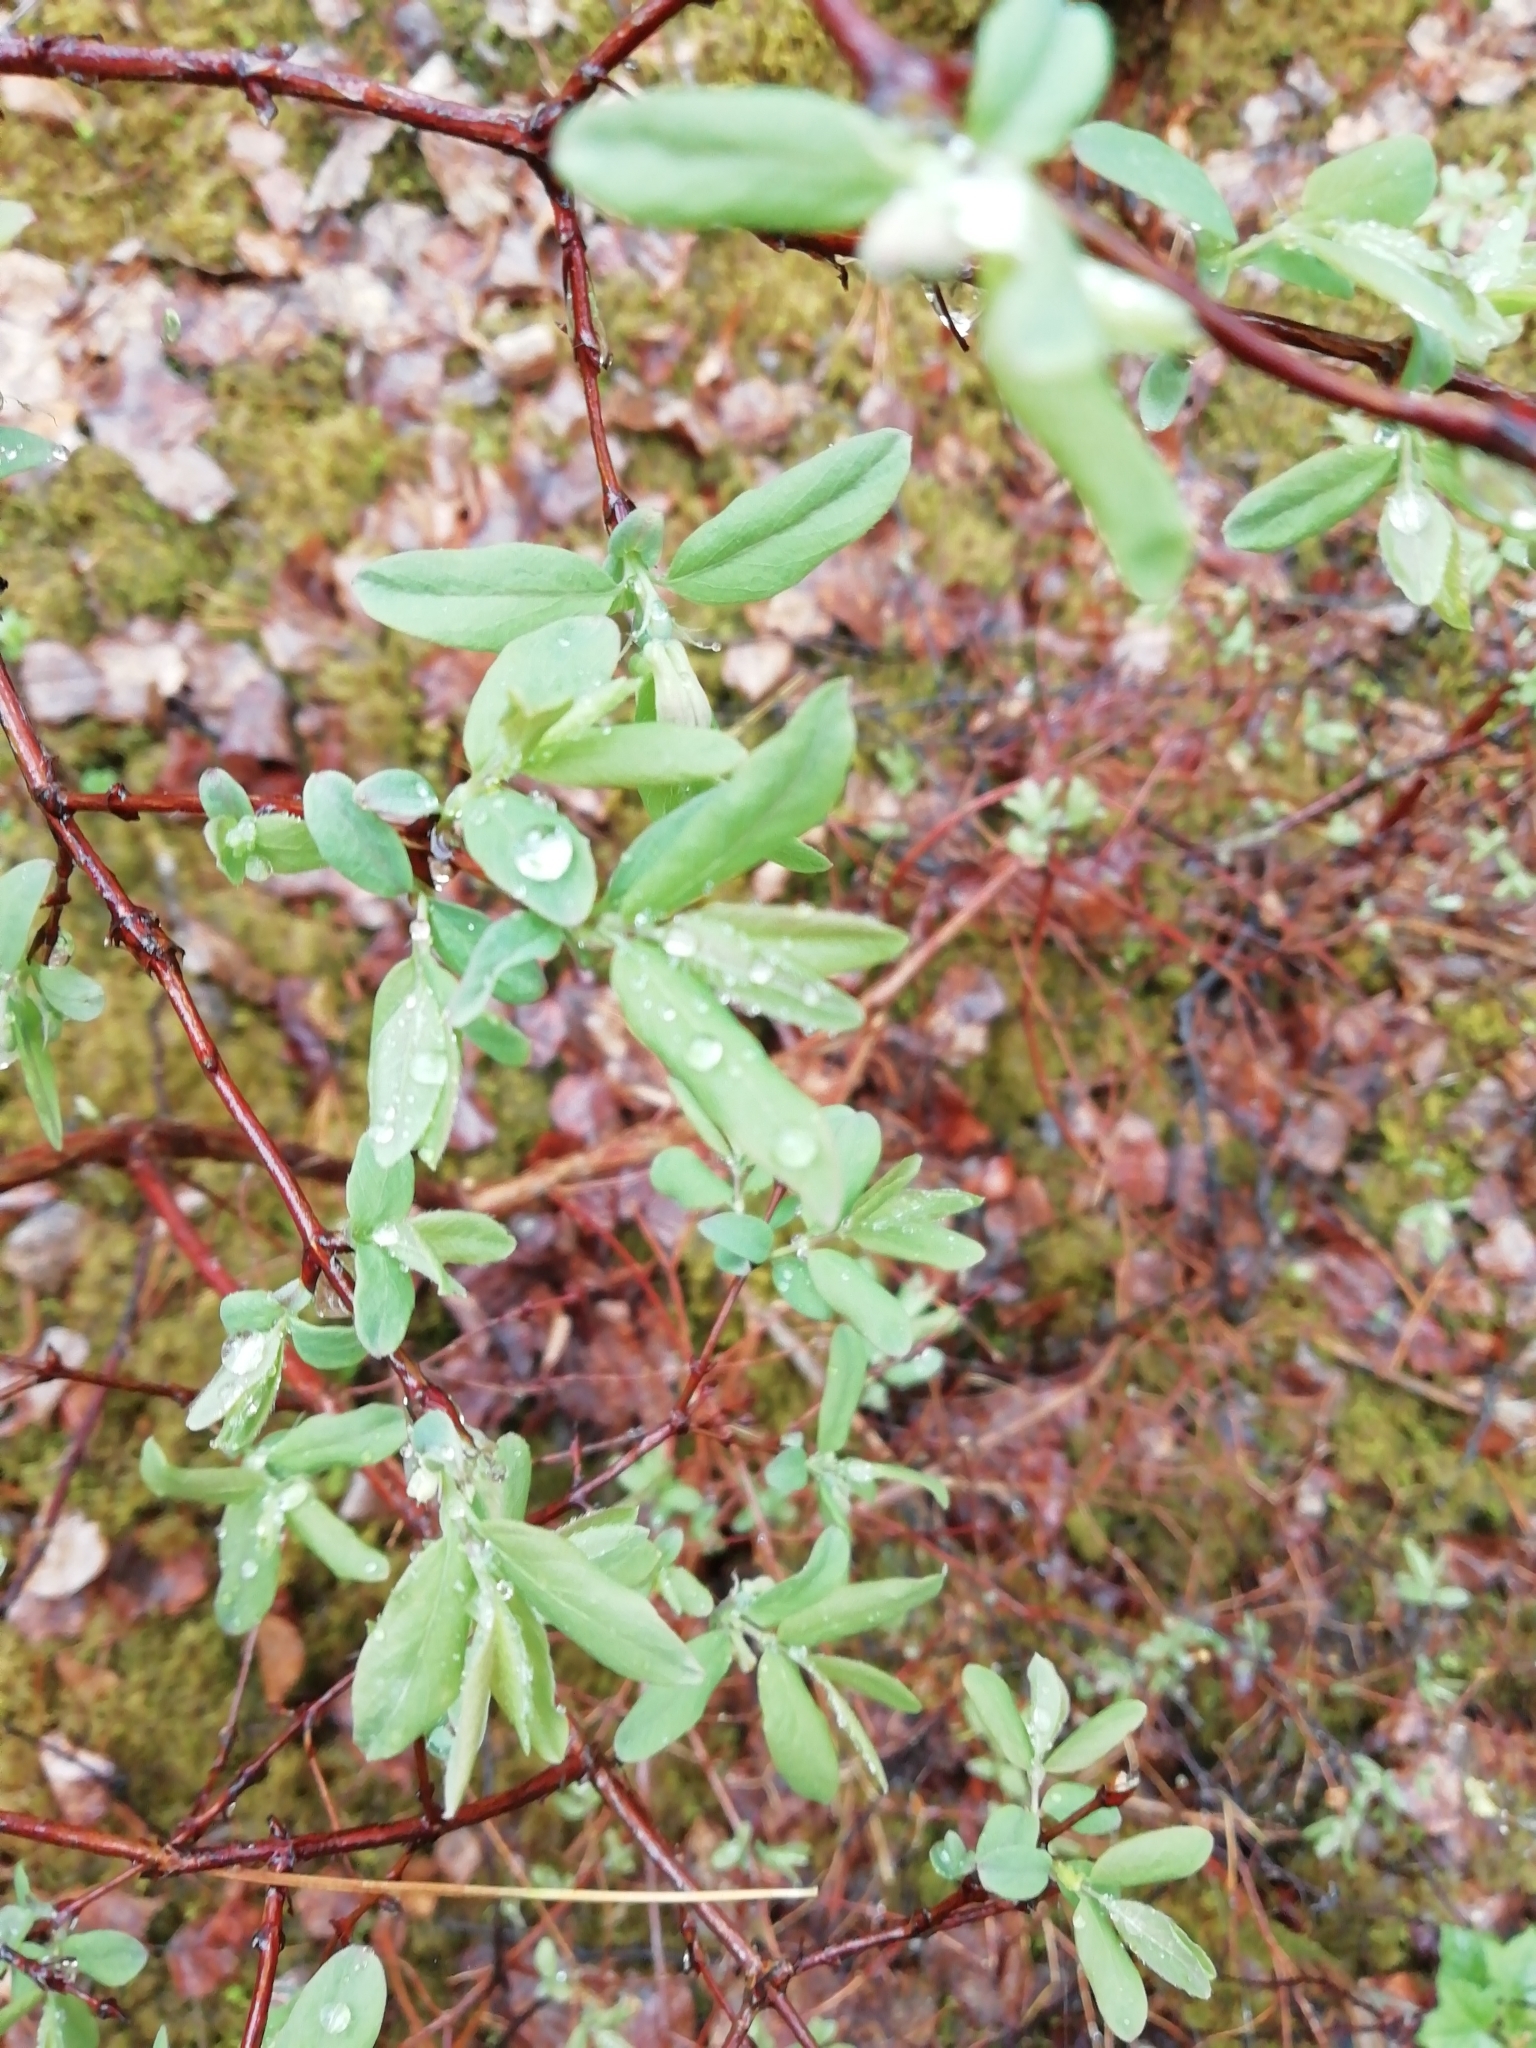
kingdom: Plantae
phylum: Tracheophyta
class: Magnoliopsida
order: Dipsacales
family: Caprifoliaceae
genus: Lonicera
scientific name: Lonicera caerulea
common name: Blue honeysuckle
